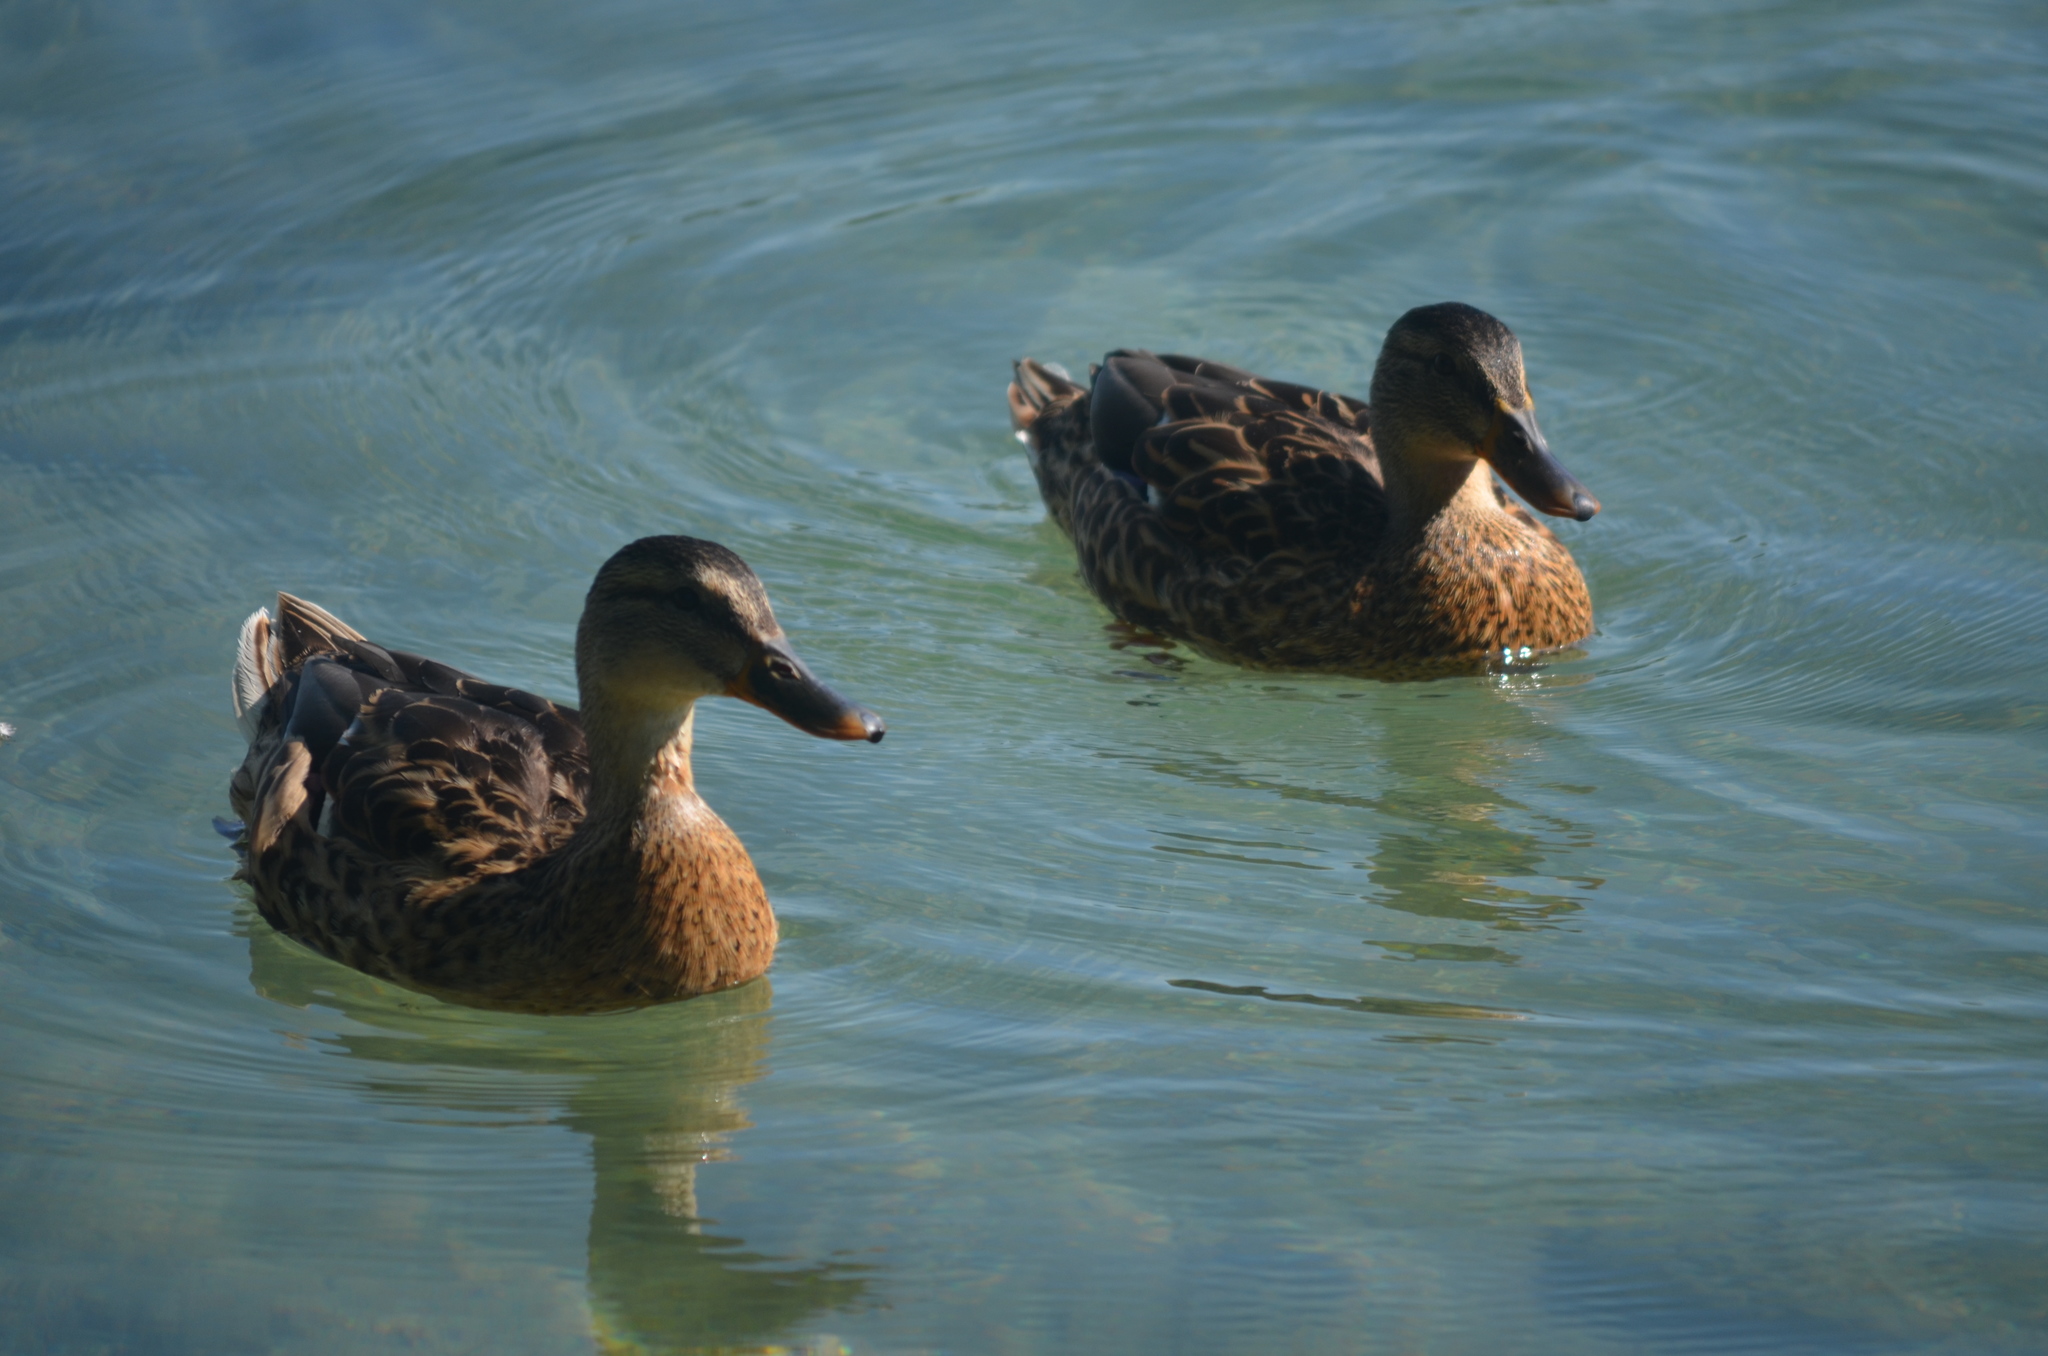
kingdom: Animalia
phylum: Chordata
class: Aves
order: Anseriformes
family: Anatidae
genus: Anas
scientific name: Anas platyrhynchos
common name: Mallard
